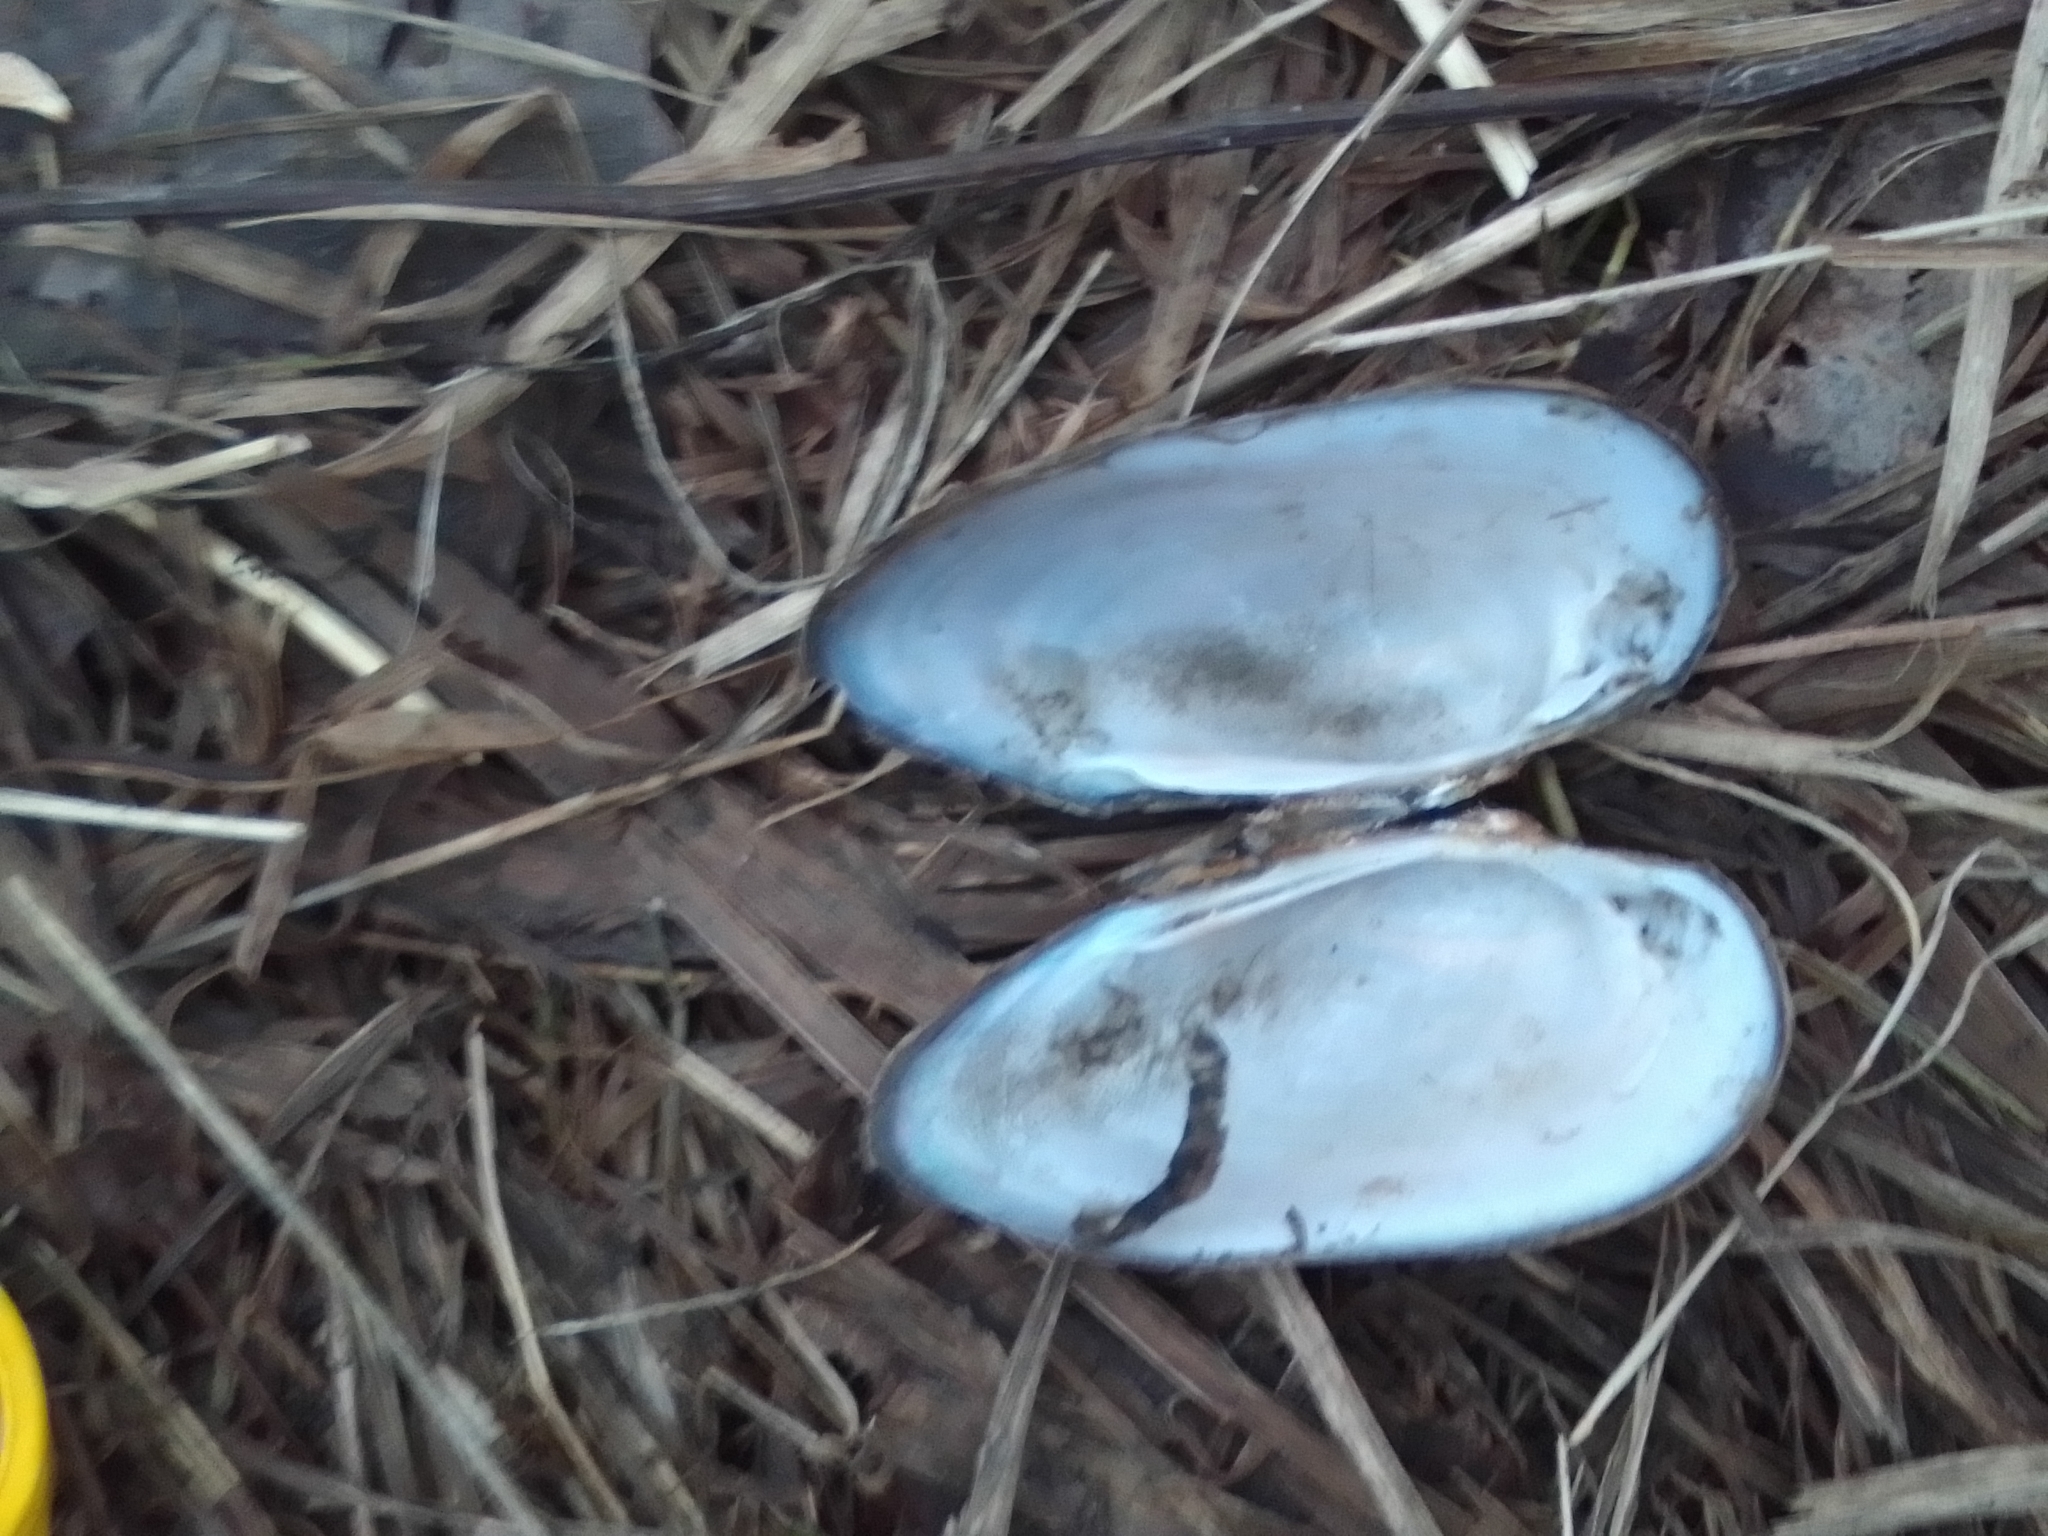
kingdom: Animalia
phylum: Mollusca
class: Bivalvia
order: Unionida
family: Unionidae
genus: Unio
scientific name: Unio tumidus
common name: Swollen river mussel
